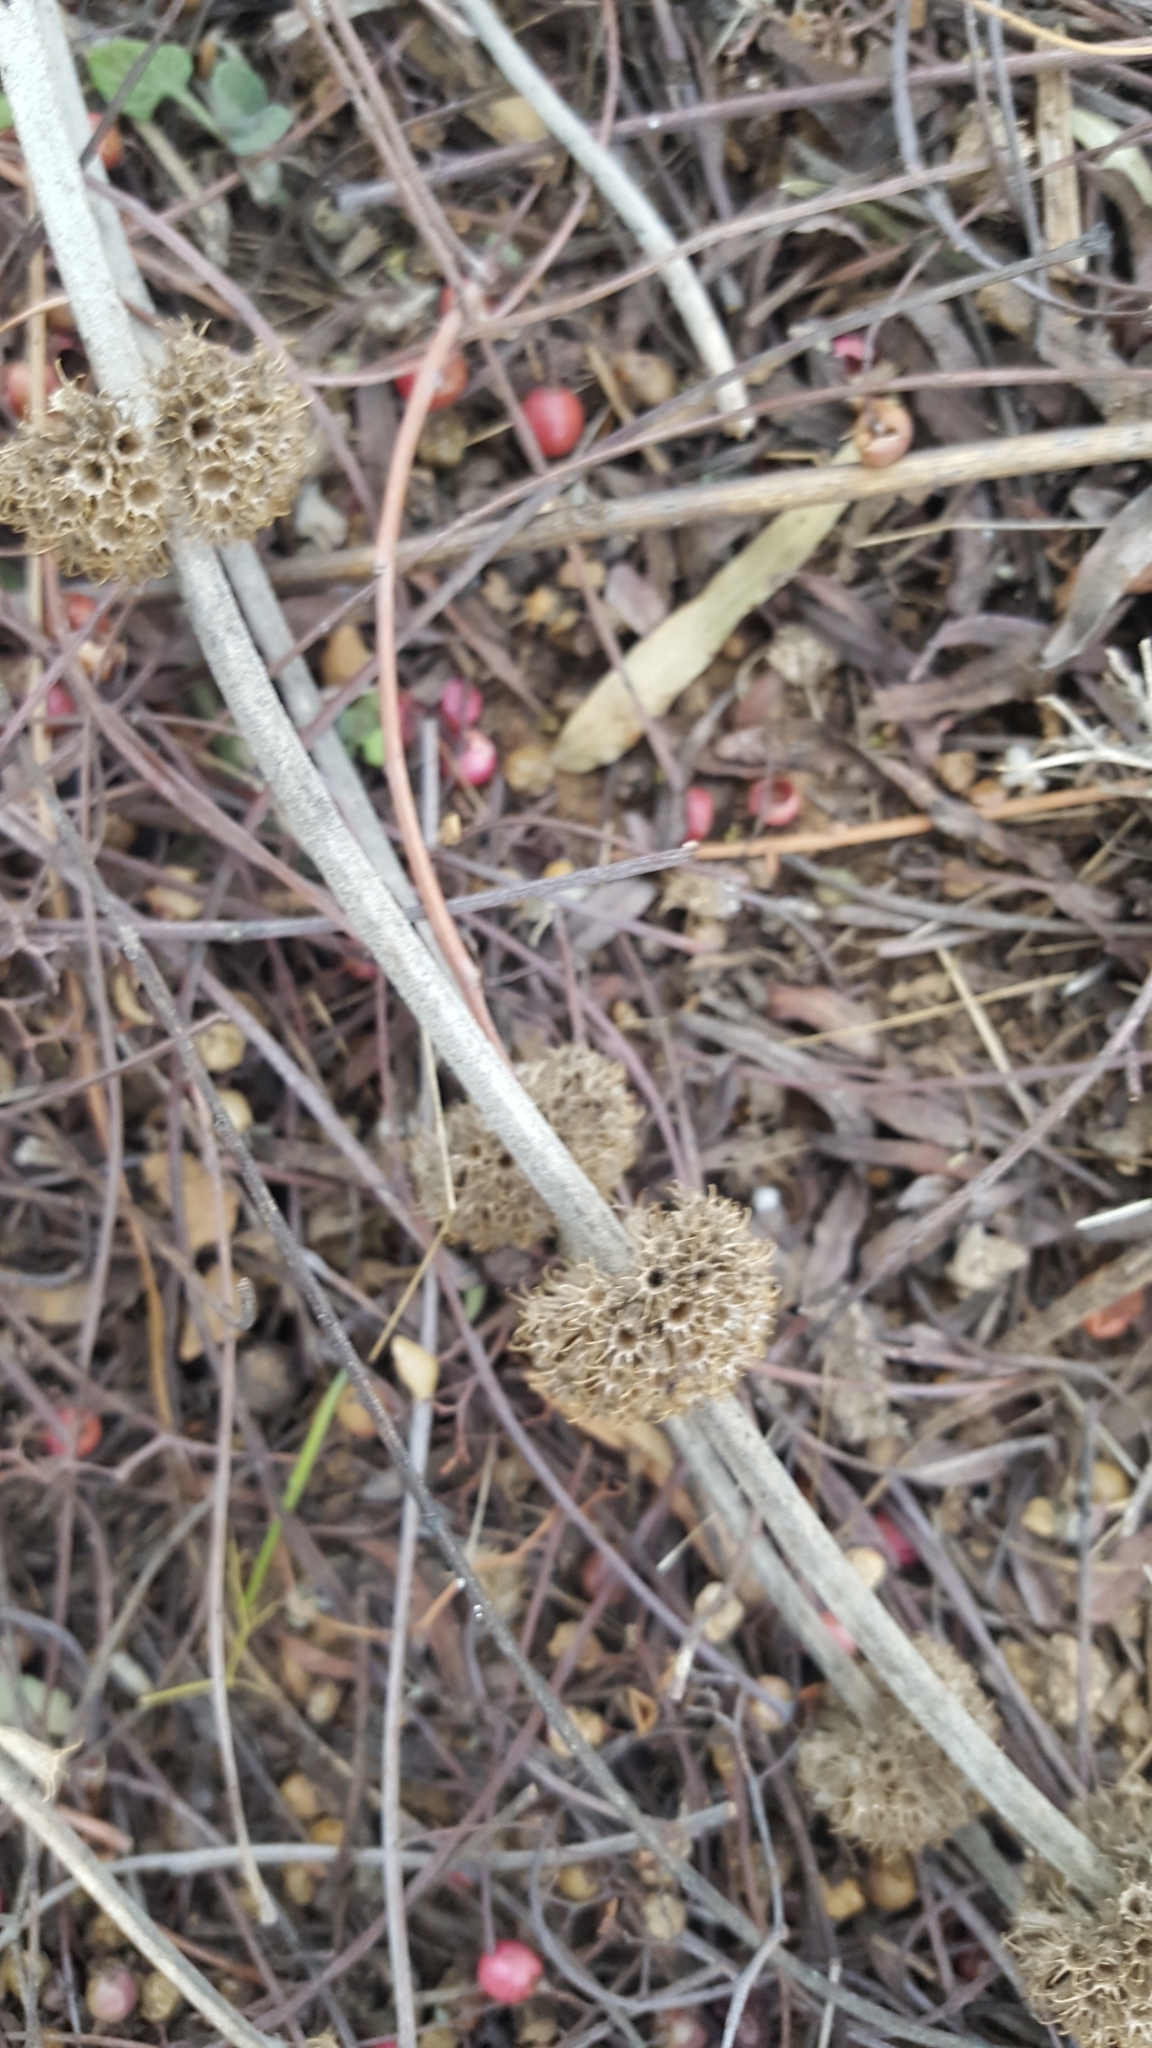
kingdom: Plantae
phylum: Tracheophyta
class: Magnoliopsida
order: Lamiales
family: Lamiaceae
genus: Marrubium
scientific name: Marrubium vulgare
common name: Horehound
